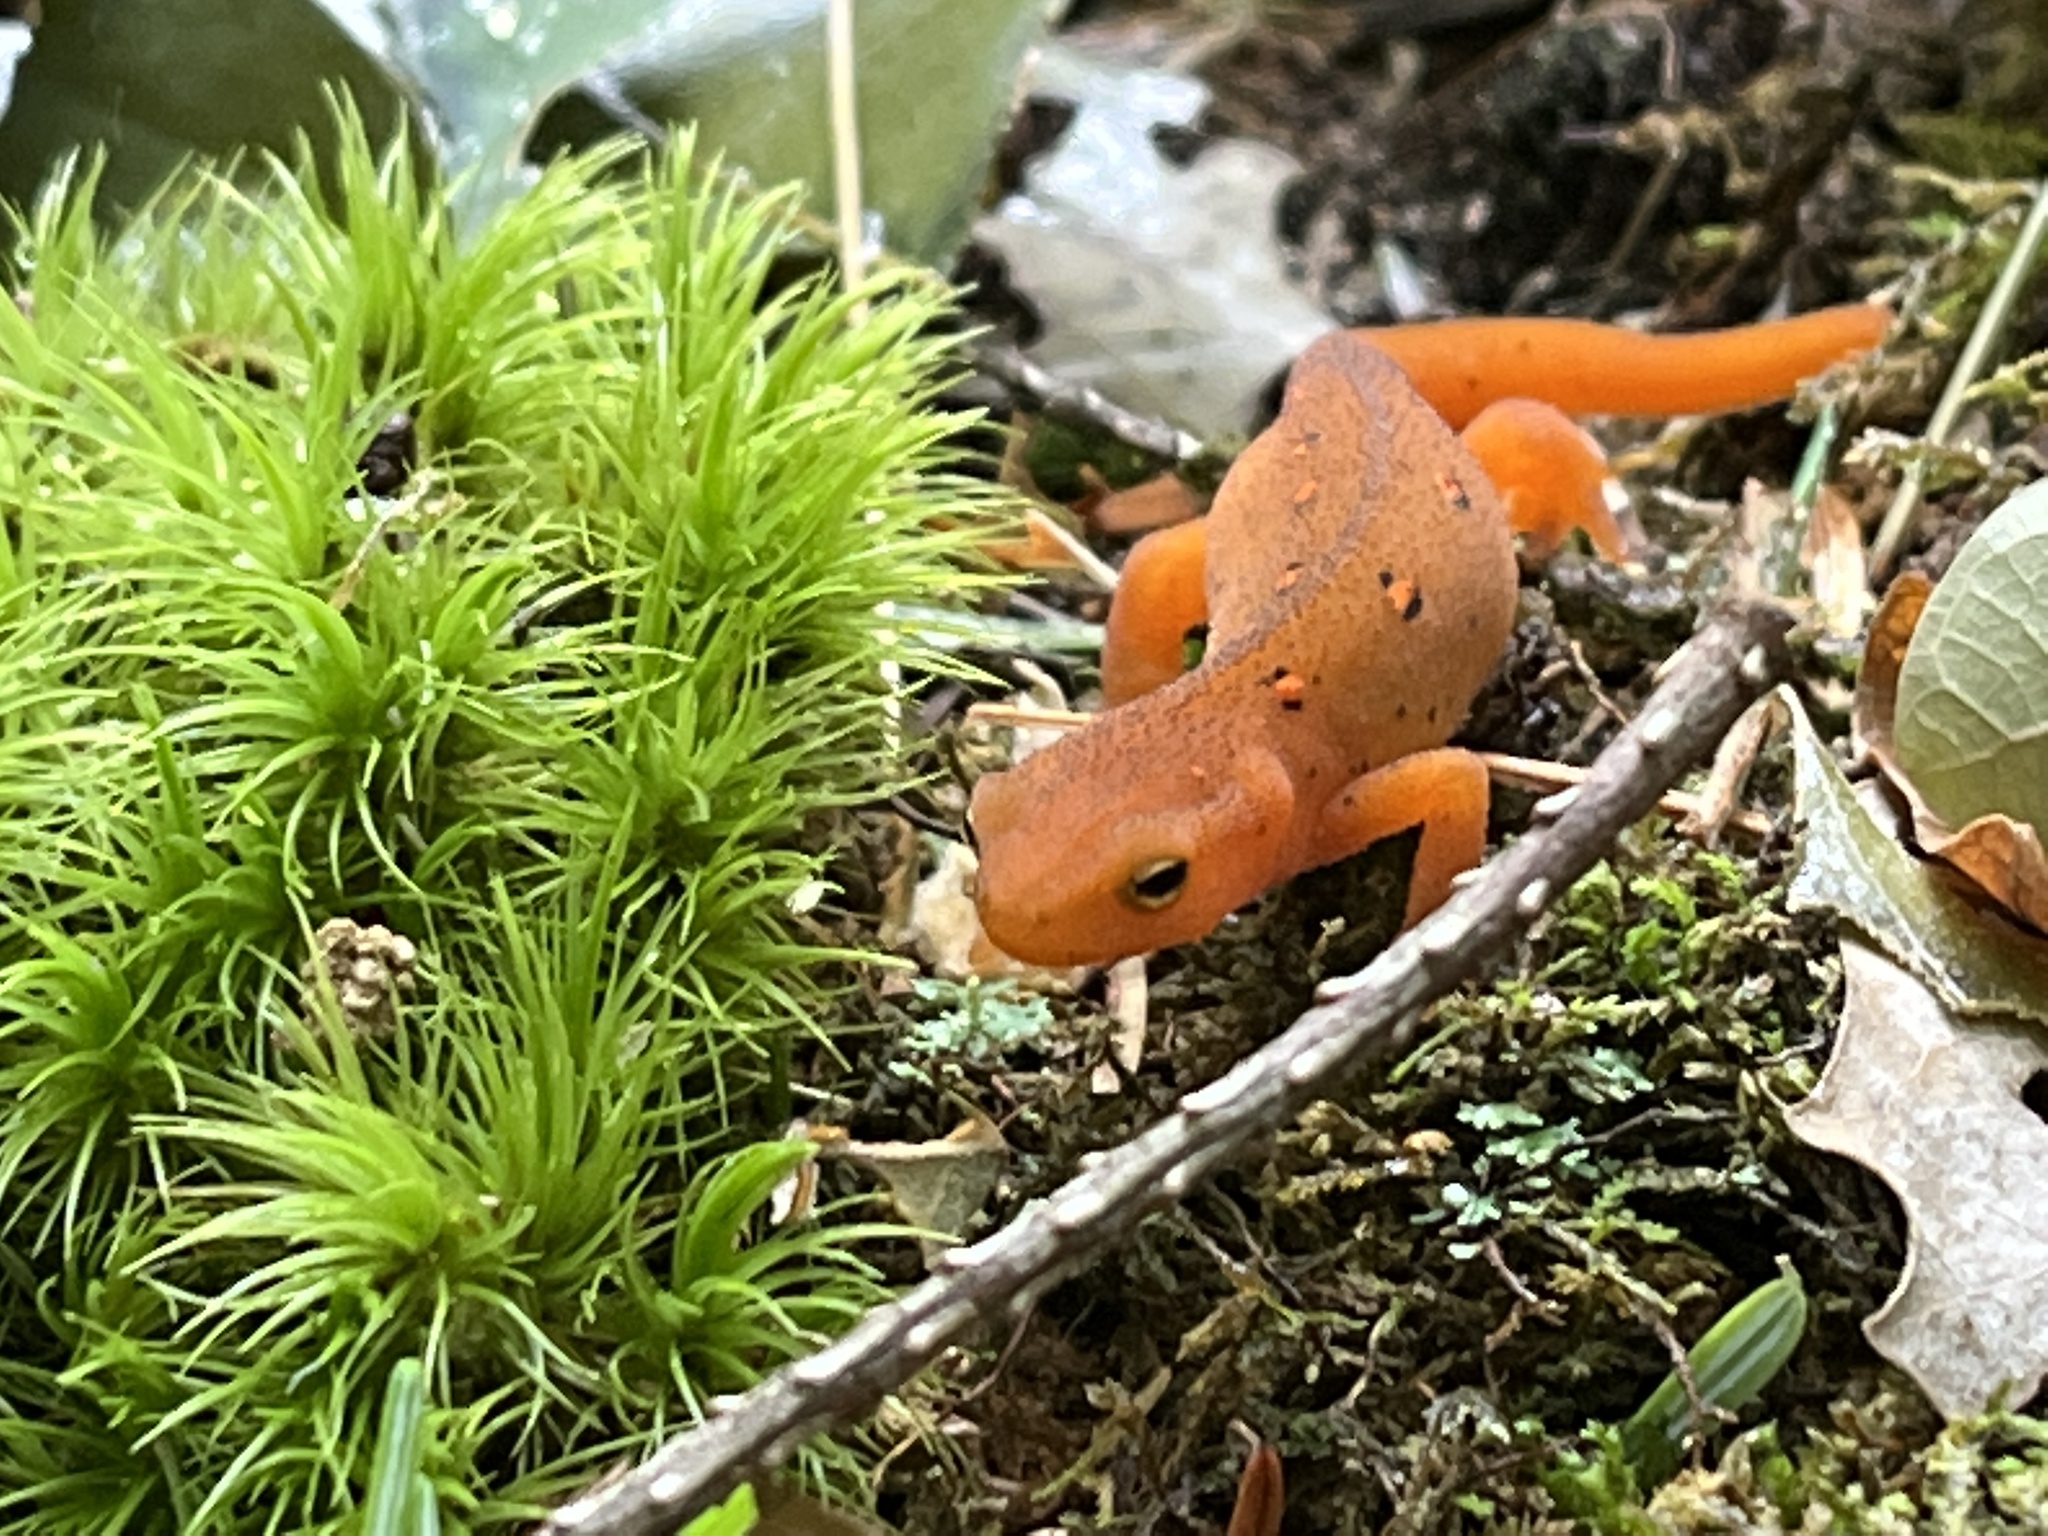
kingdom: Animalia
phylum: Chordata
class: Amphibia
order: Caudata
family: Salamandridae
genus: Notophthalmus
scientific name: Notophthalmus viridescens
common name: Eastern newt
